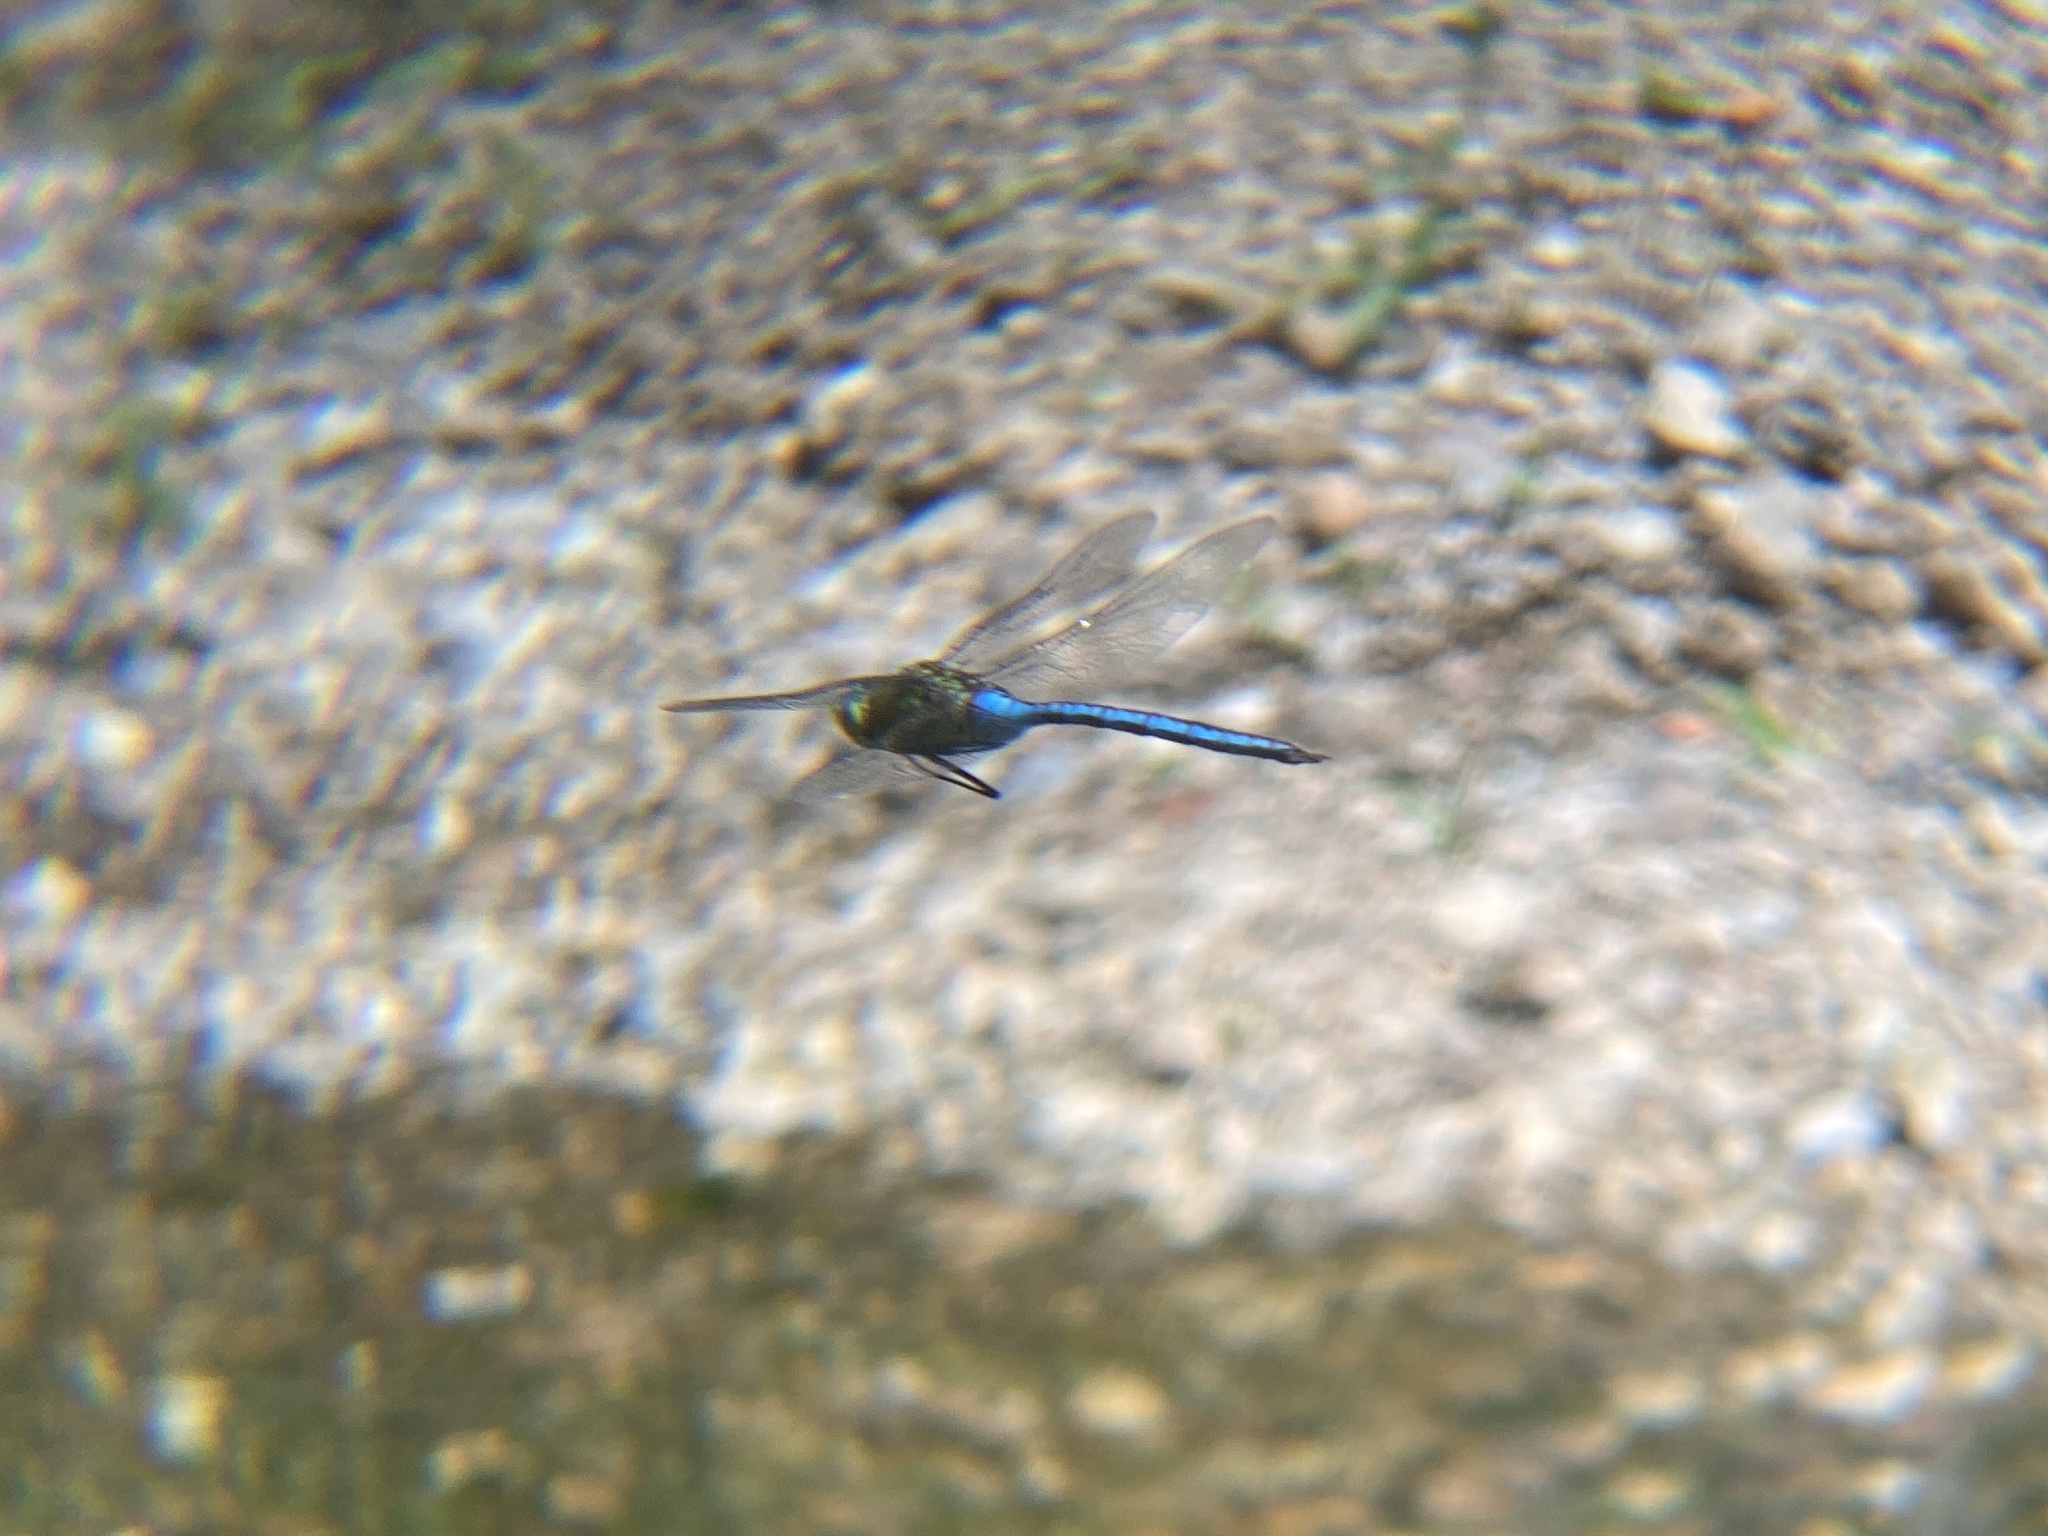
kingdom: Animalia
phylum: Arthropoda
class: Insecta
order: Odonata
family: Aeshnidae
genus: Anax
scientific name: Anax imperator
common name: Emperor dragonfly
